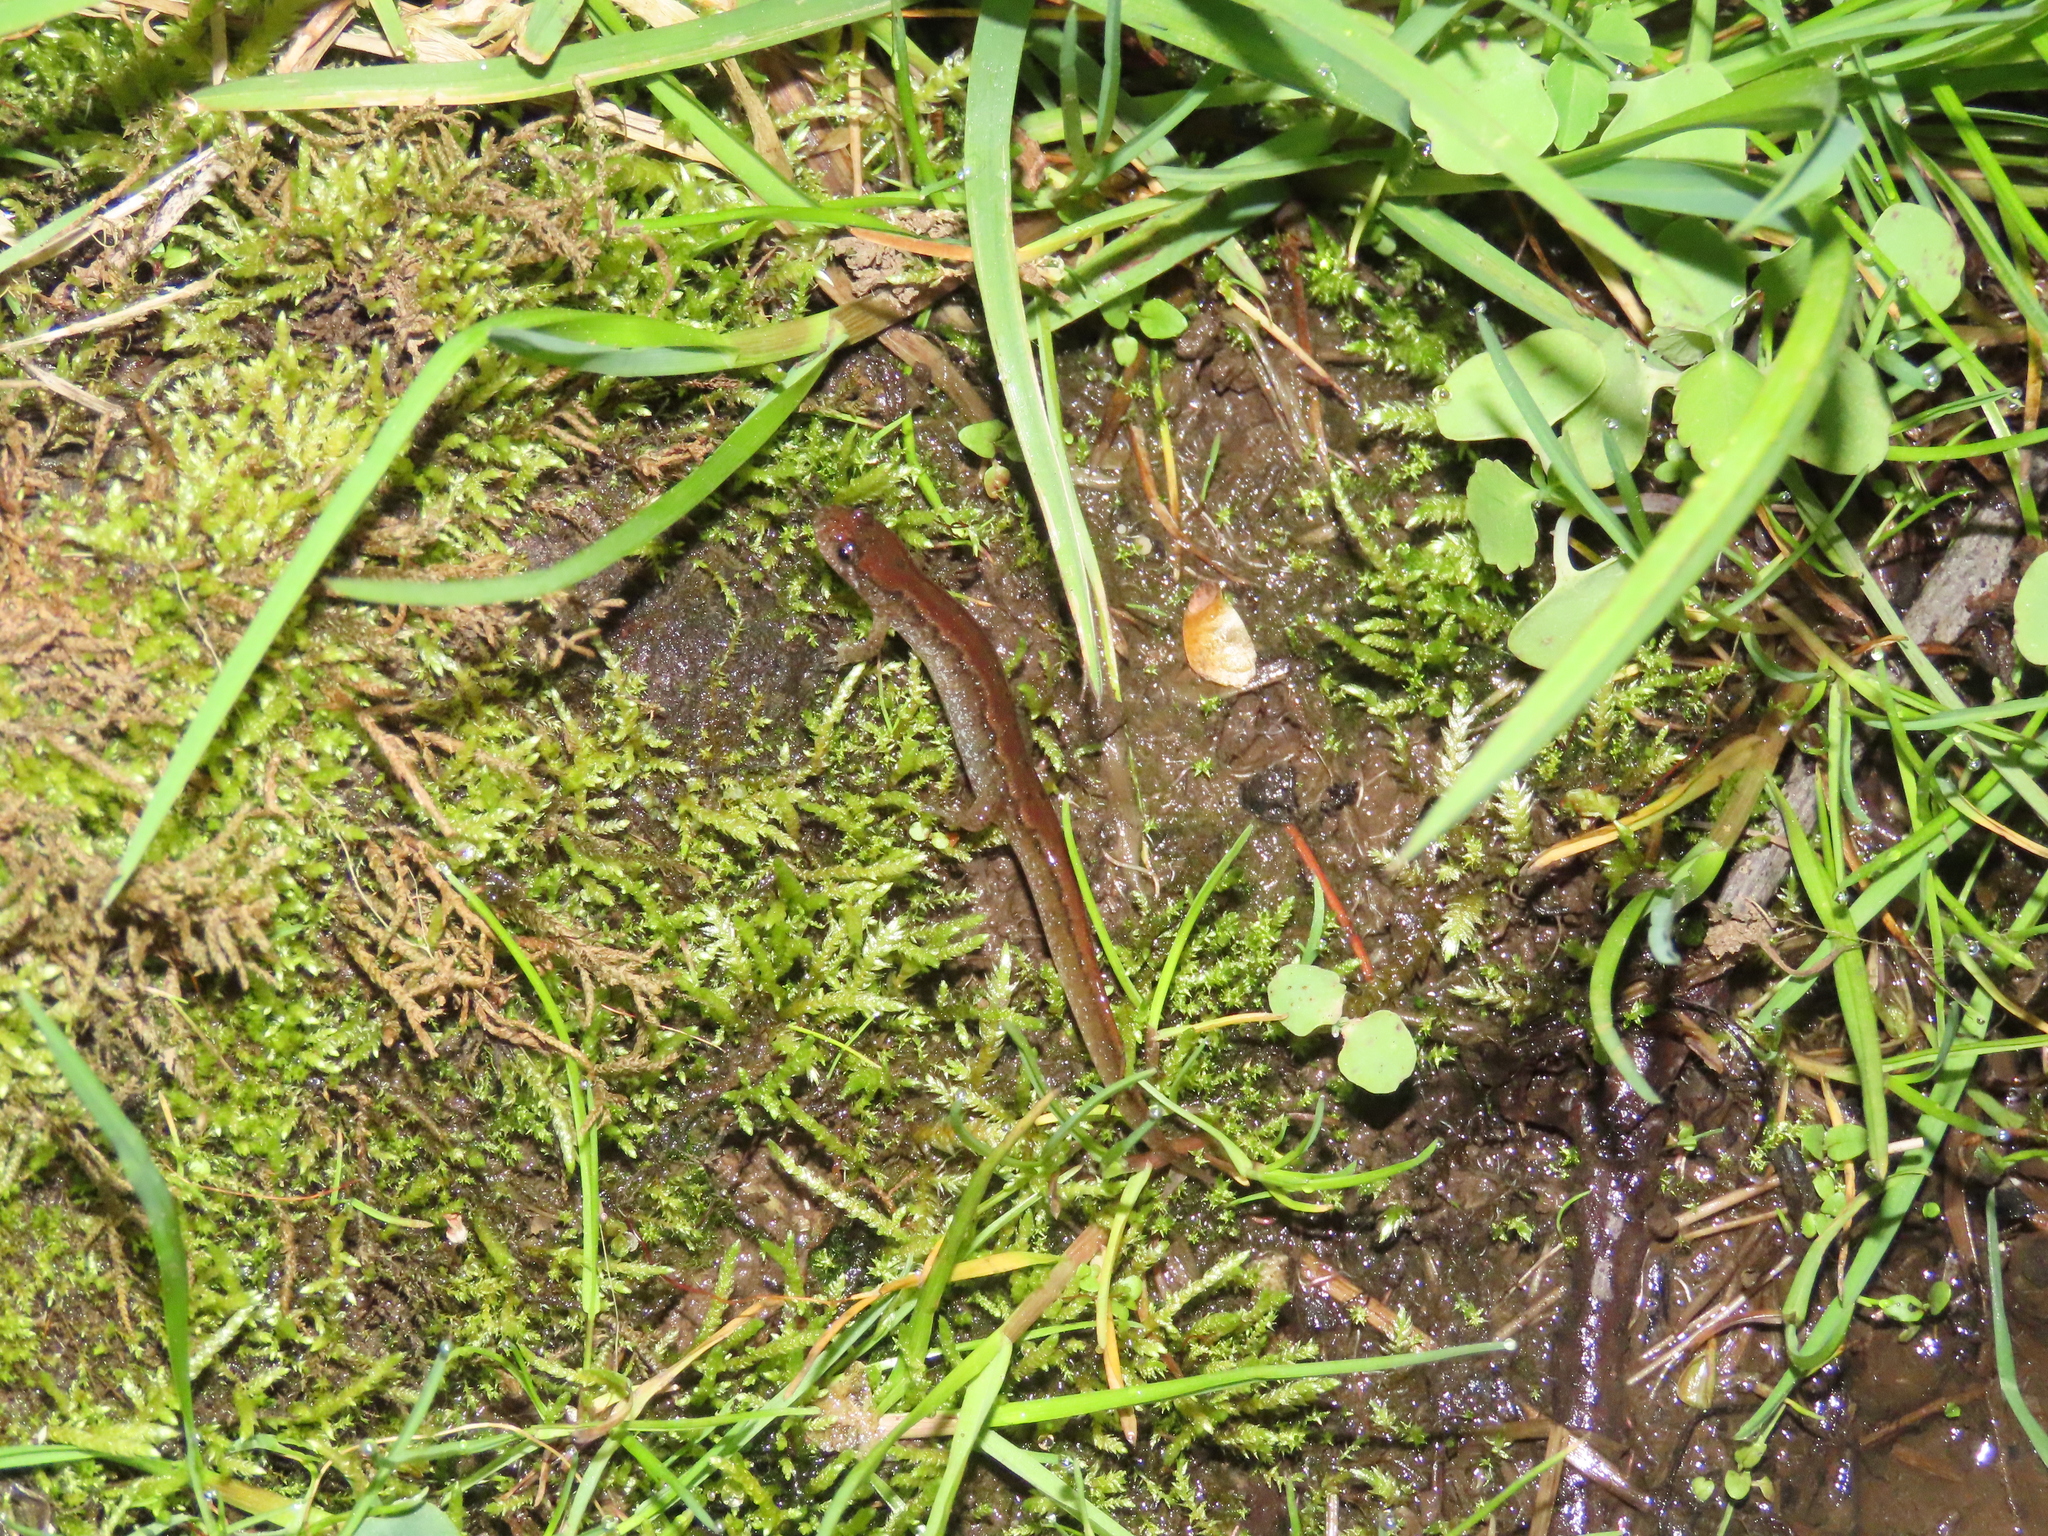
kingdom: Animalia
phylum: Chordata
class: Amphibia
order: Caudata
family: Plethodontidae
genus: Desmognathus
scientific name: Desmognathus fuscus
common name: Northern dusky salamander
